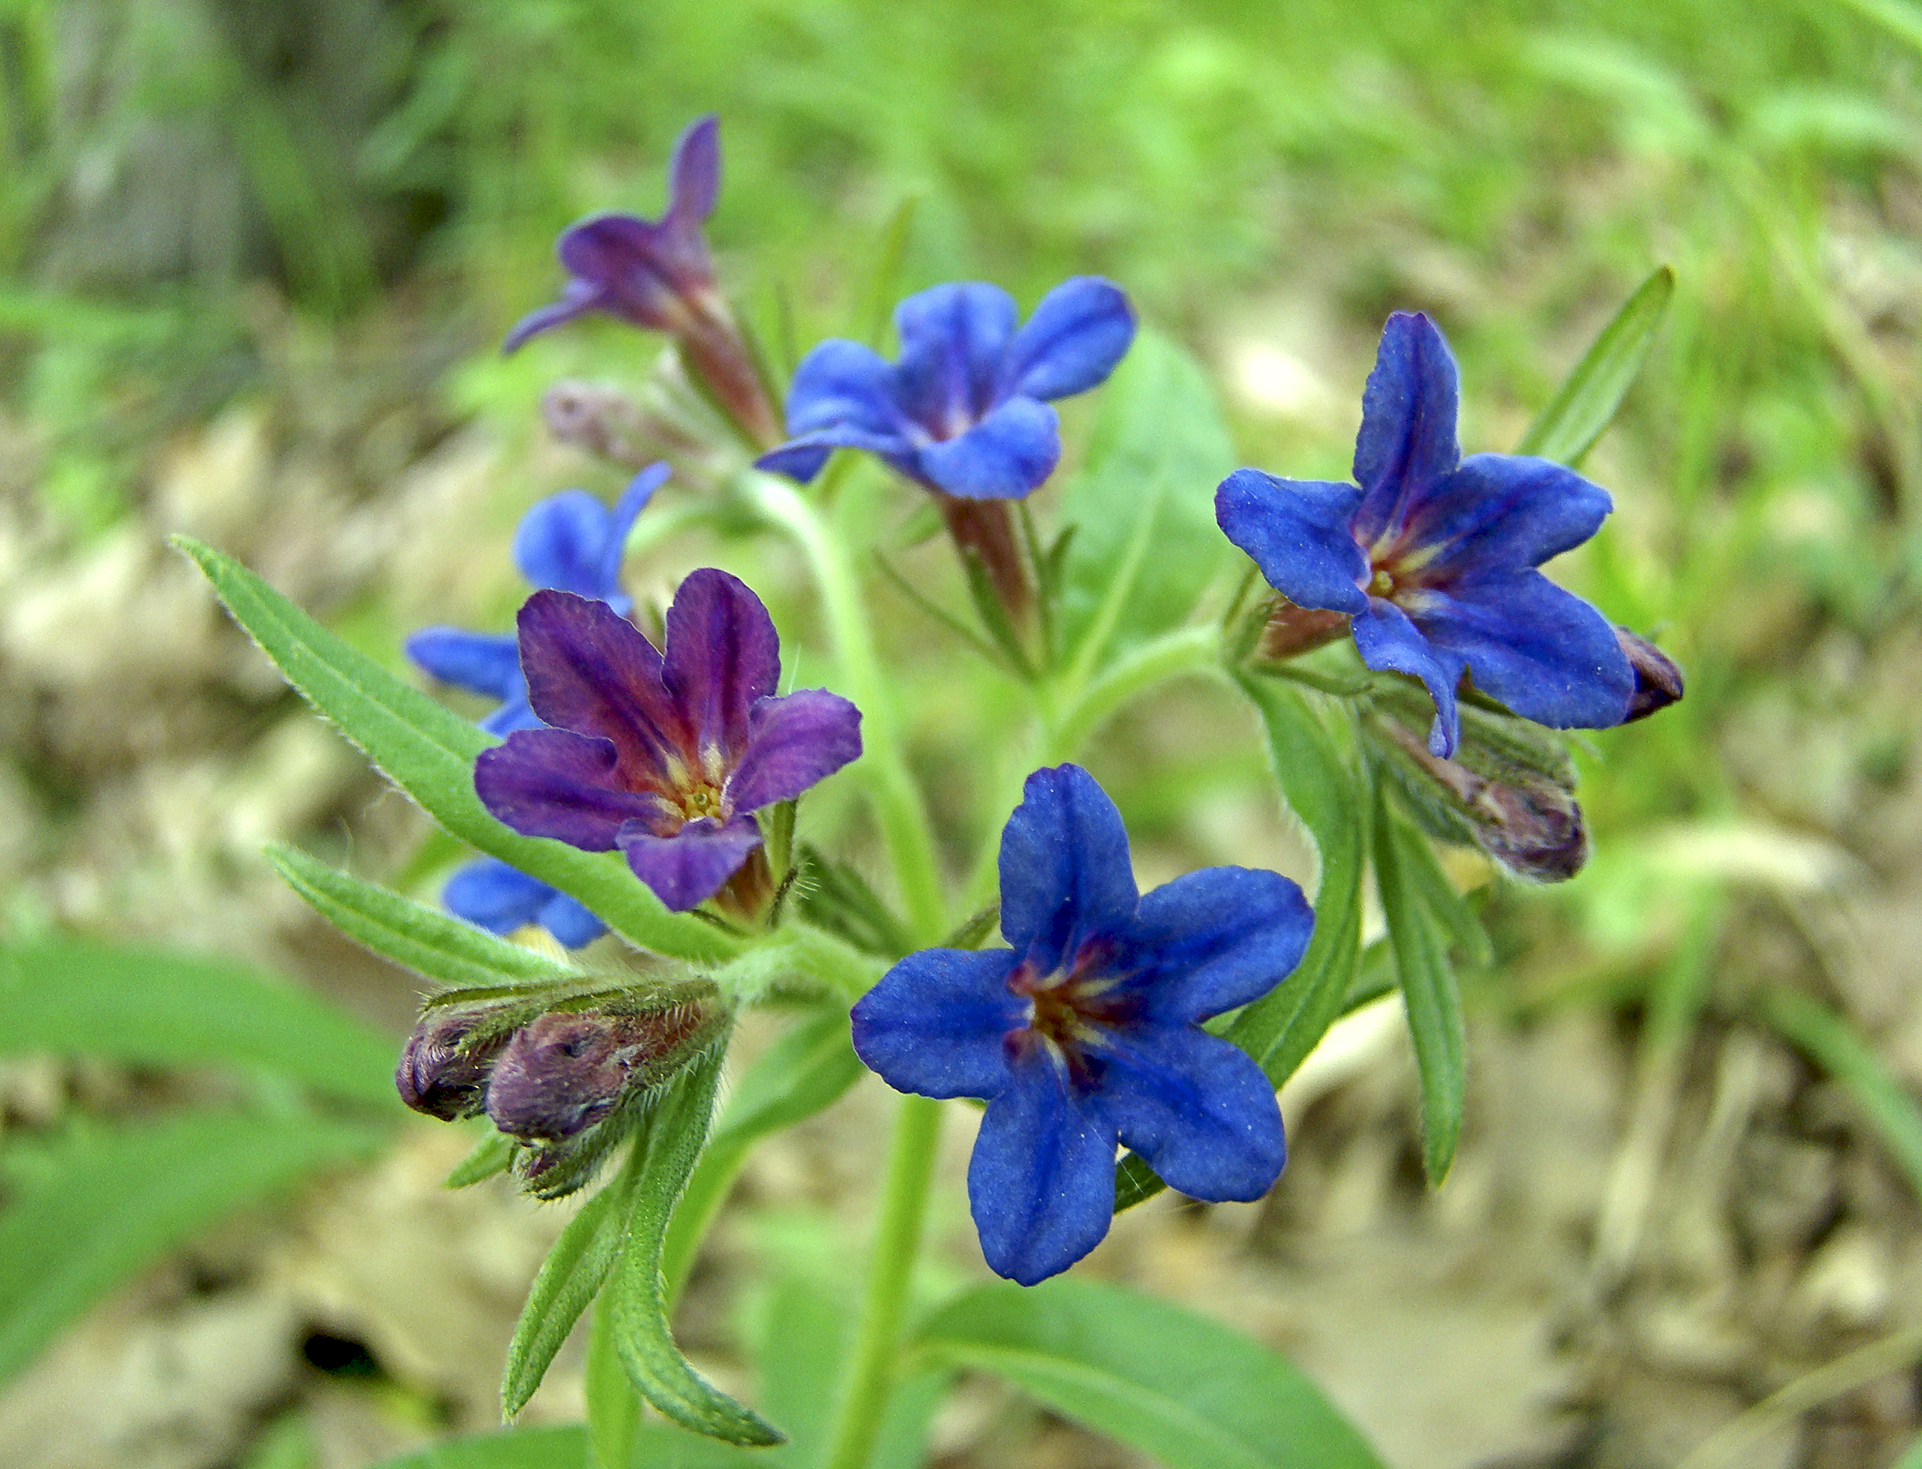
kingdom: Plantae
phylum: Tracheophyta
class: Magnoliopsida
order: Boraginales
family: Boraginaceae
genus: Aegonychon
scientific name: Aegonychon purpurocaeruleum
